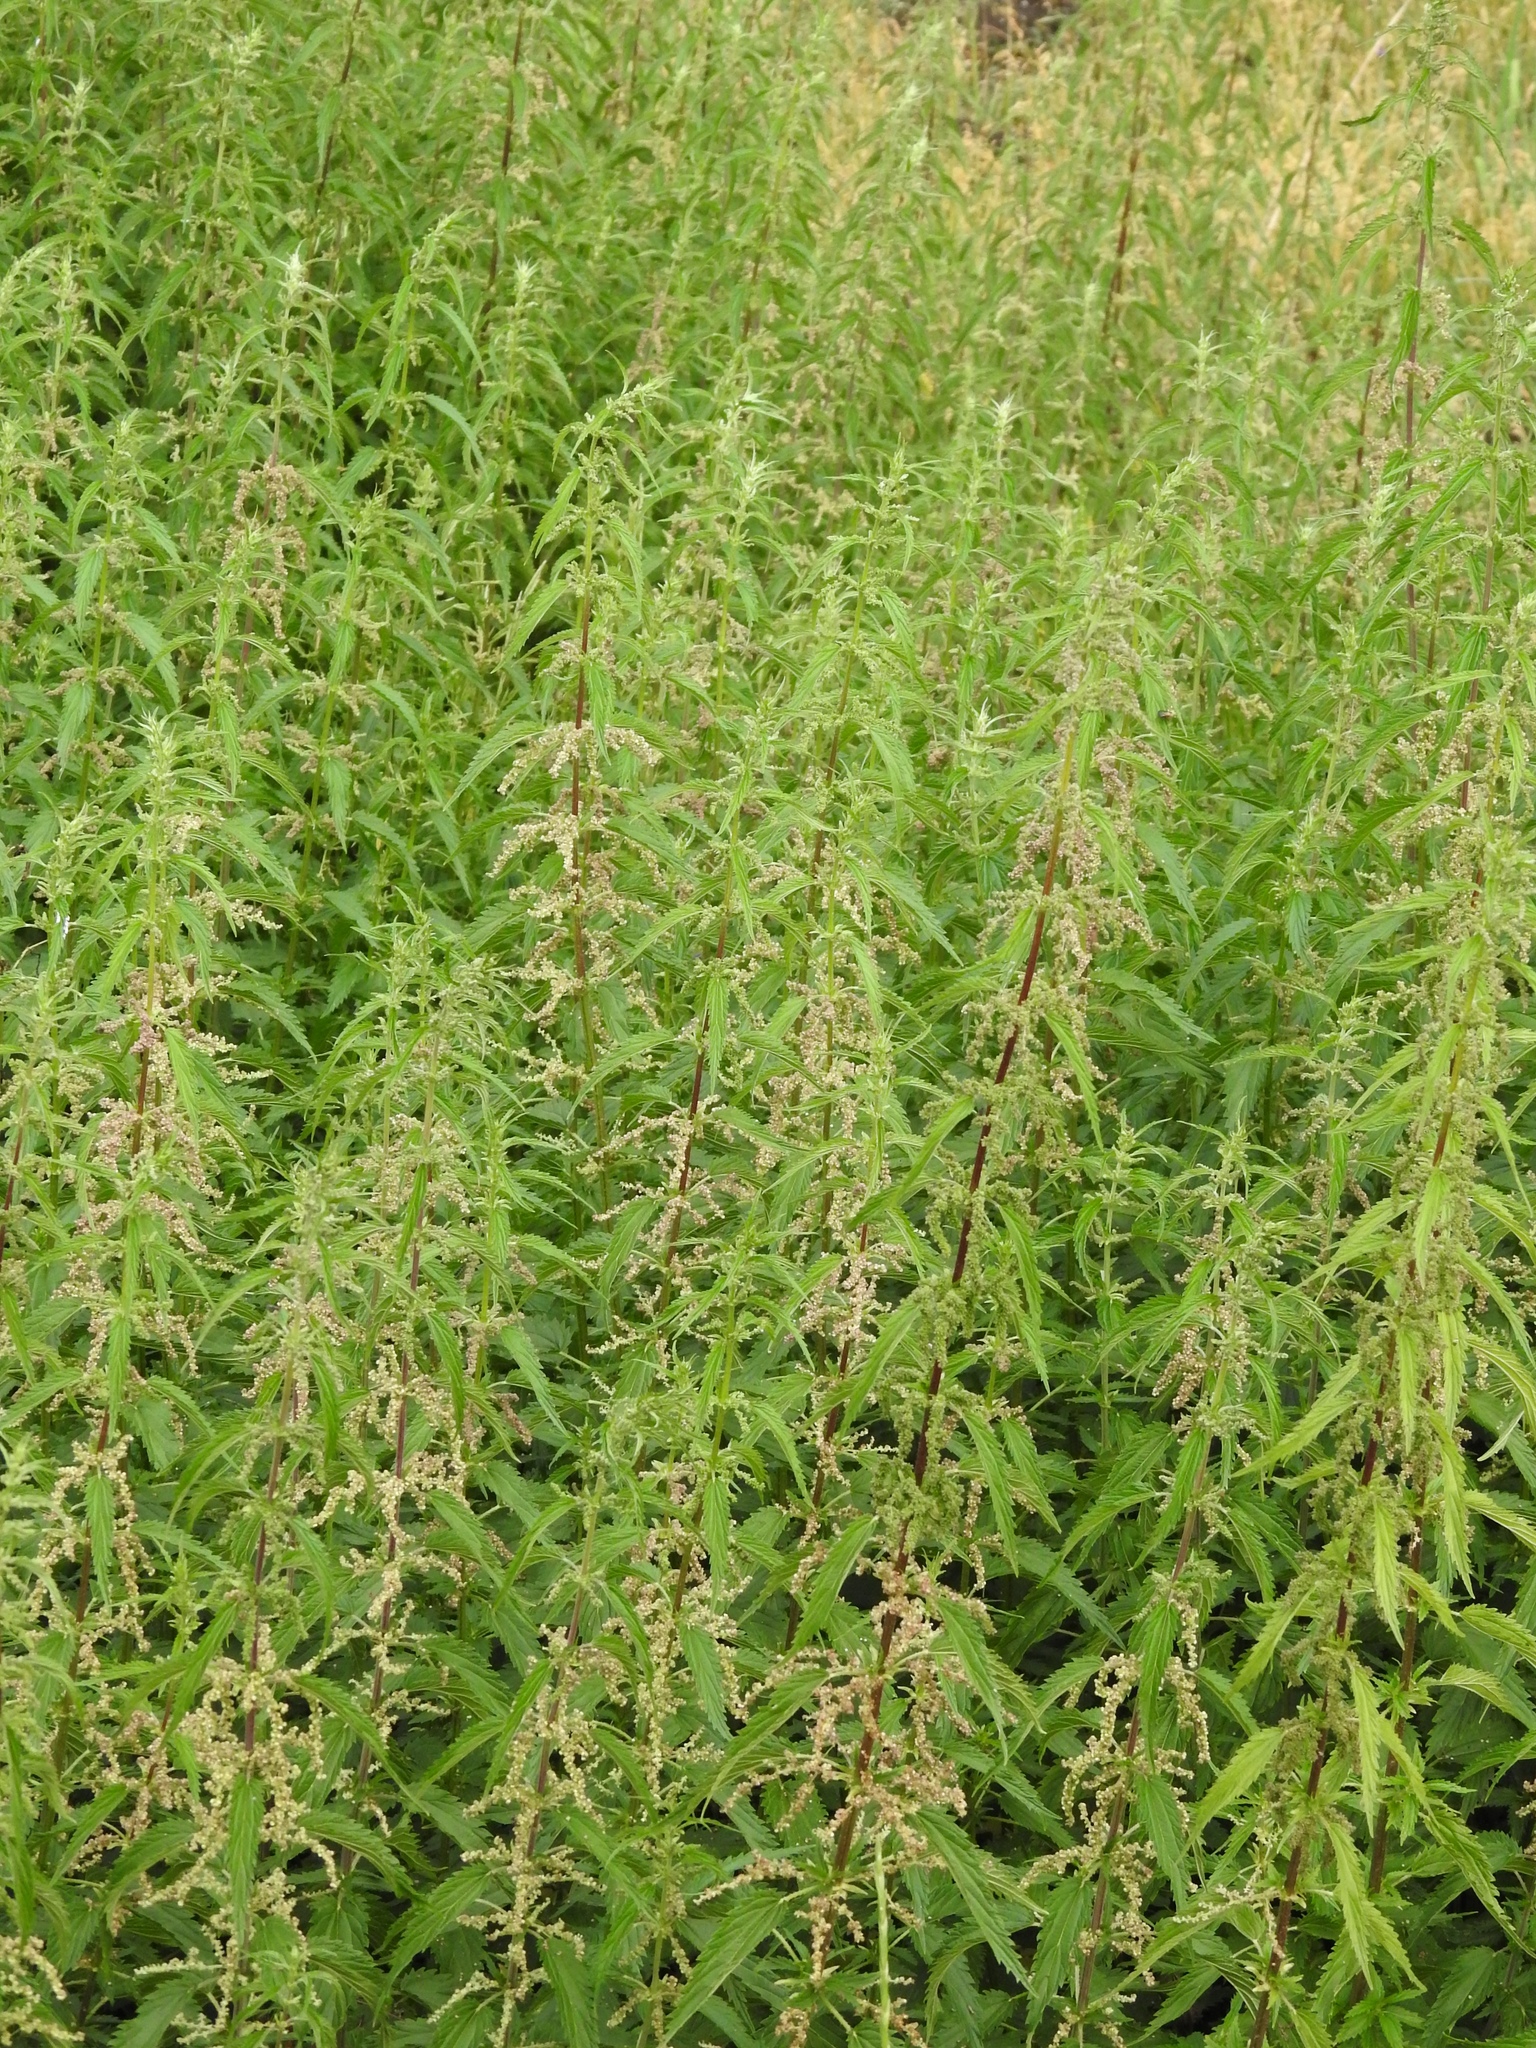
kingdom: Plantae
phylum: Tracheophyta
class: Magnoliopsida
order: Rosales
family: Urticaceae
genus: Urtica
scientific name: Urtica gracilis
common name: Slender stinging nettle
